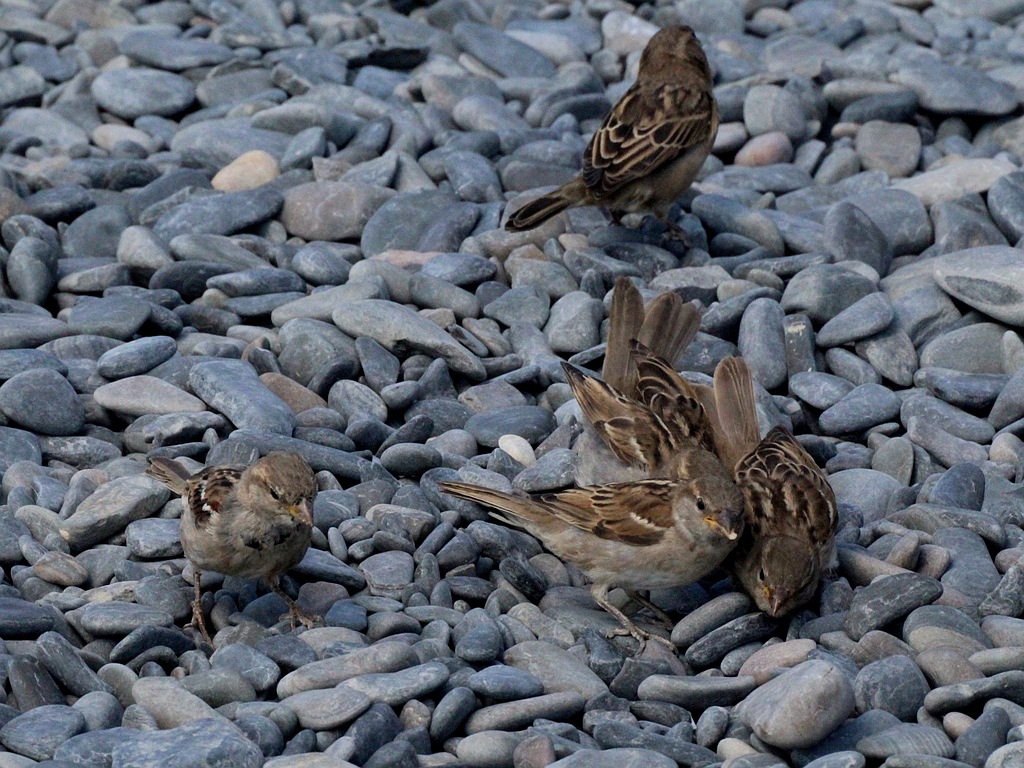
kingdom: Animalia
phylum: Chordata
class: Aves
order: Passeriformes
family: Passeridae
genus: Passer
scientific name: Passer domesticus
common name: House sparrow
